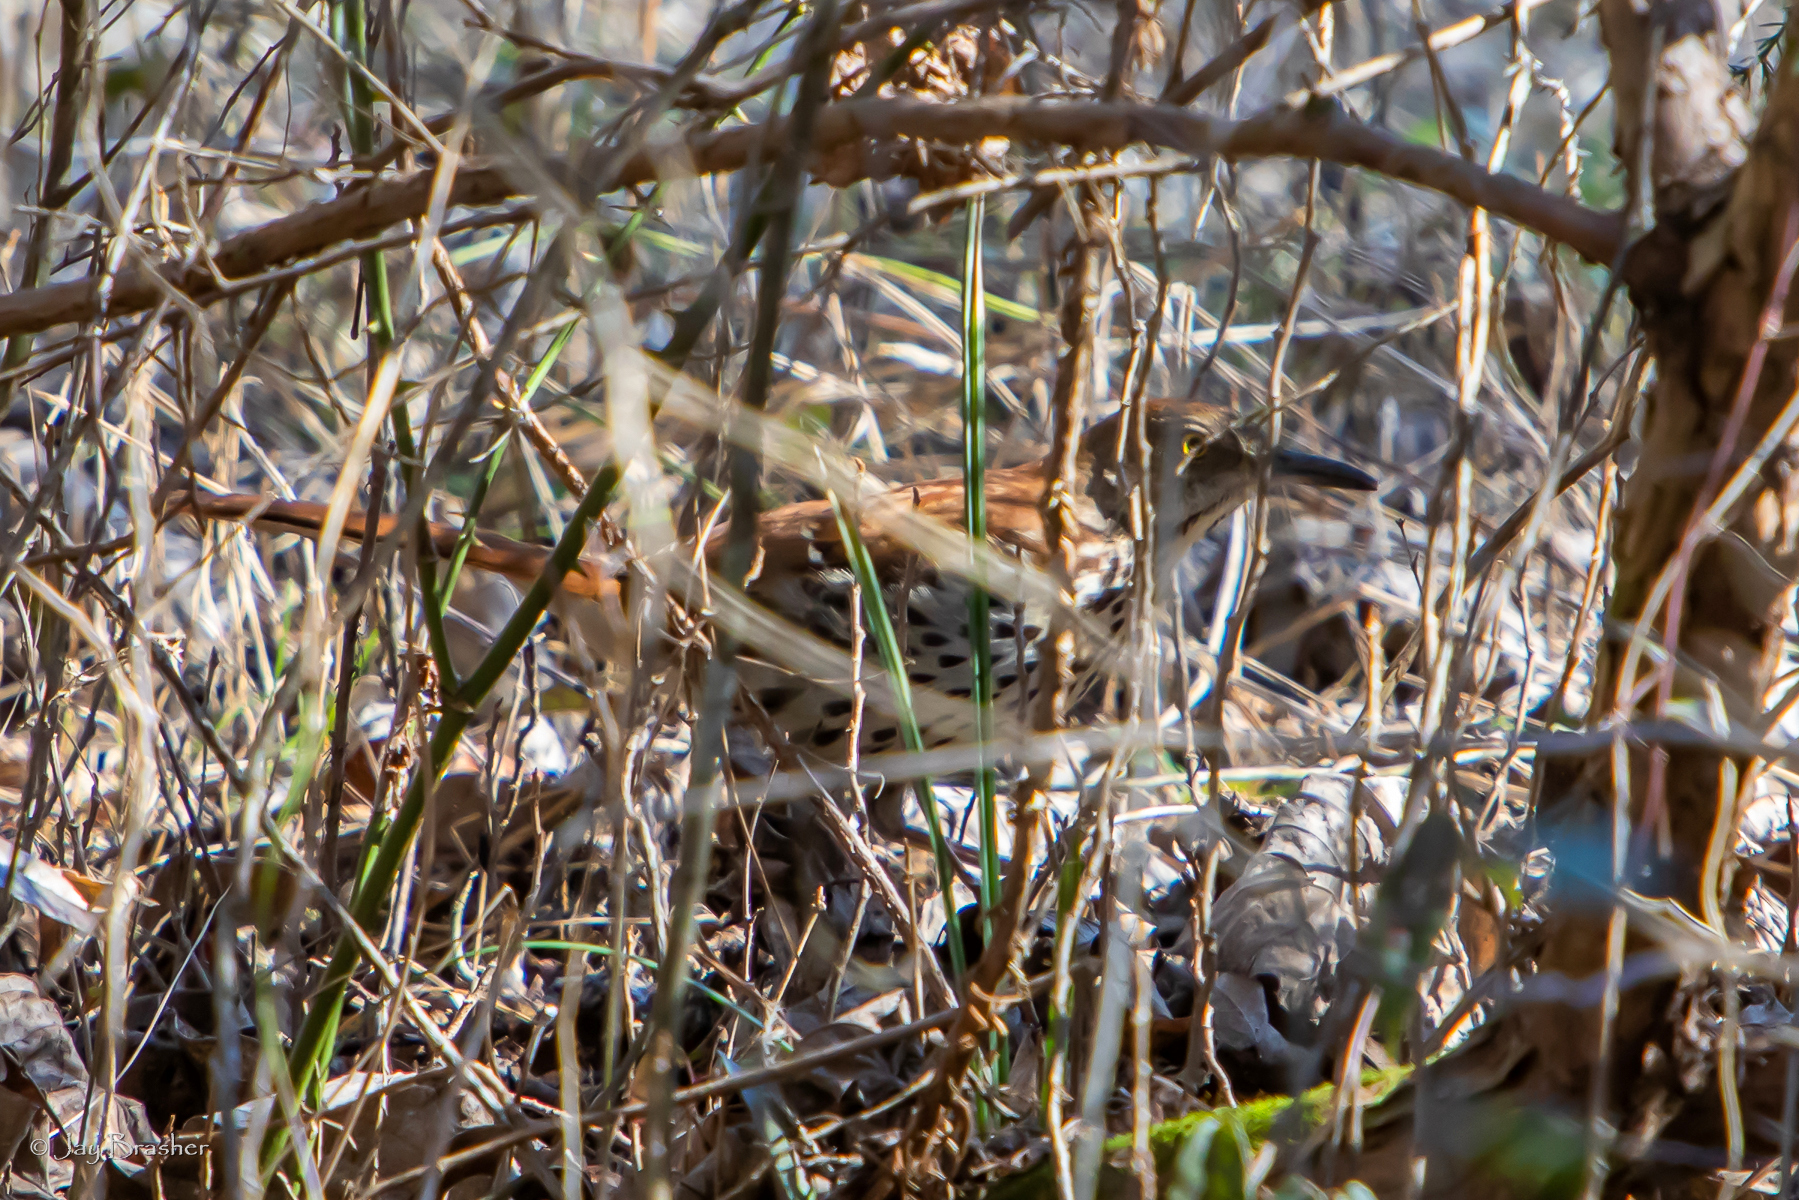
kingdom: Animalia
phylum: Chordata
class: Aves
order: Passeriformes
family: Mimidae
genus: Toxostoma
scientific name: Toxostoma rufum
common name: Brown thrasher
